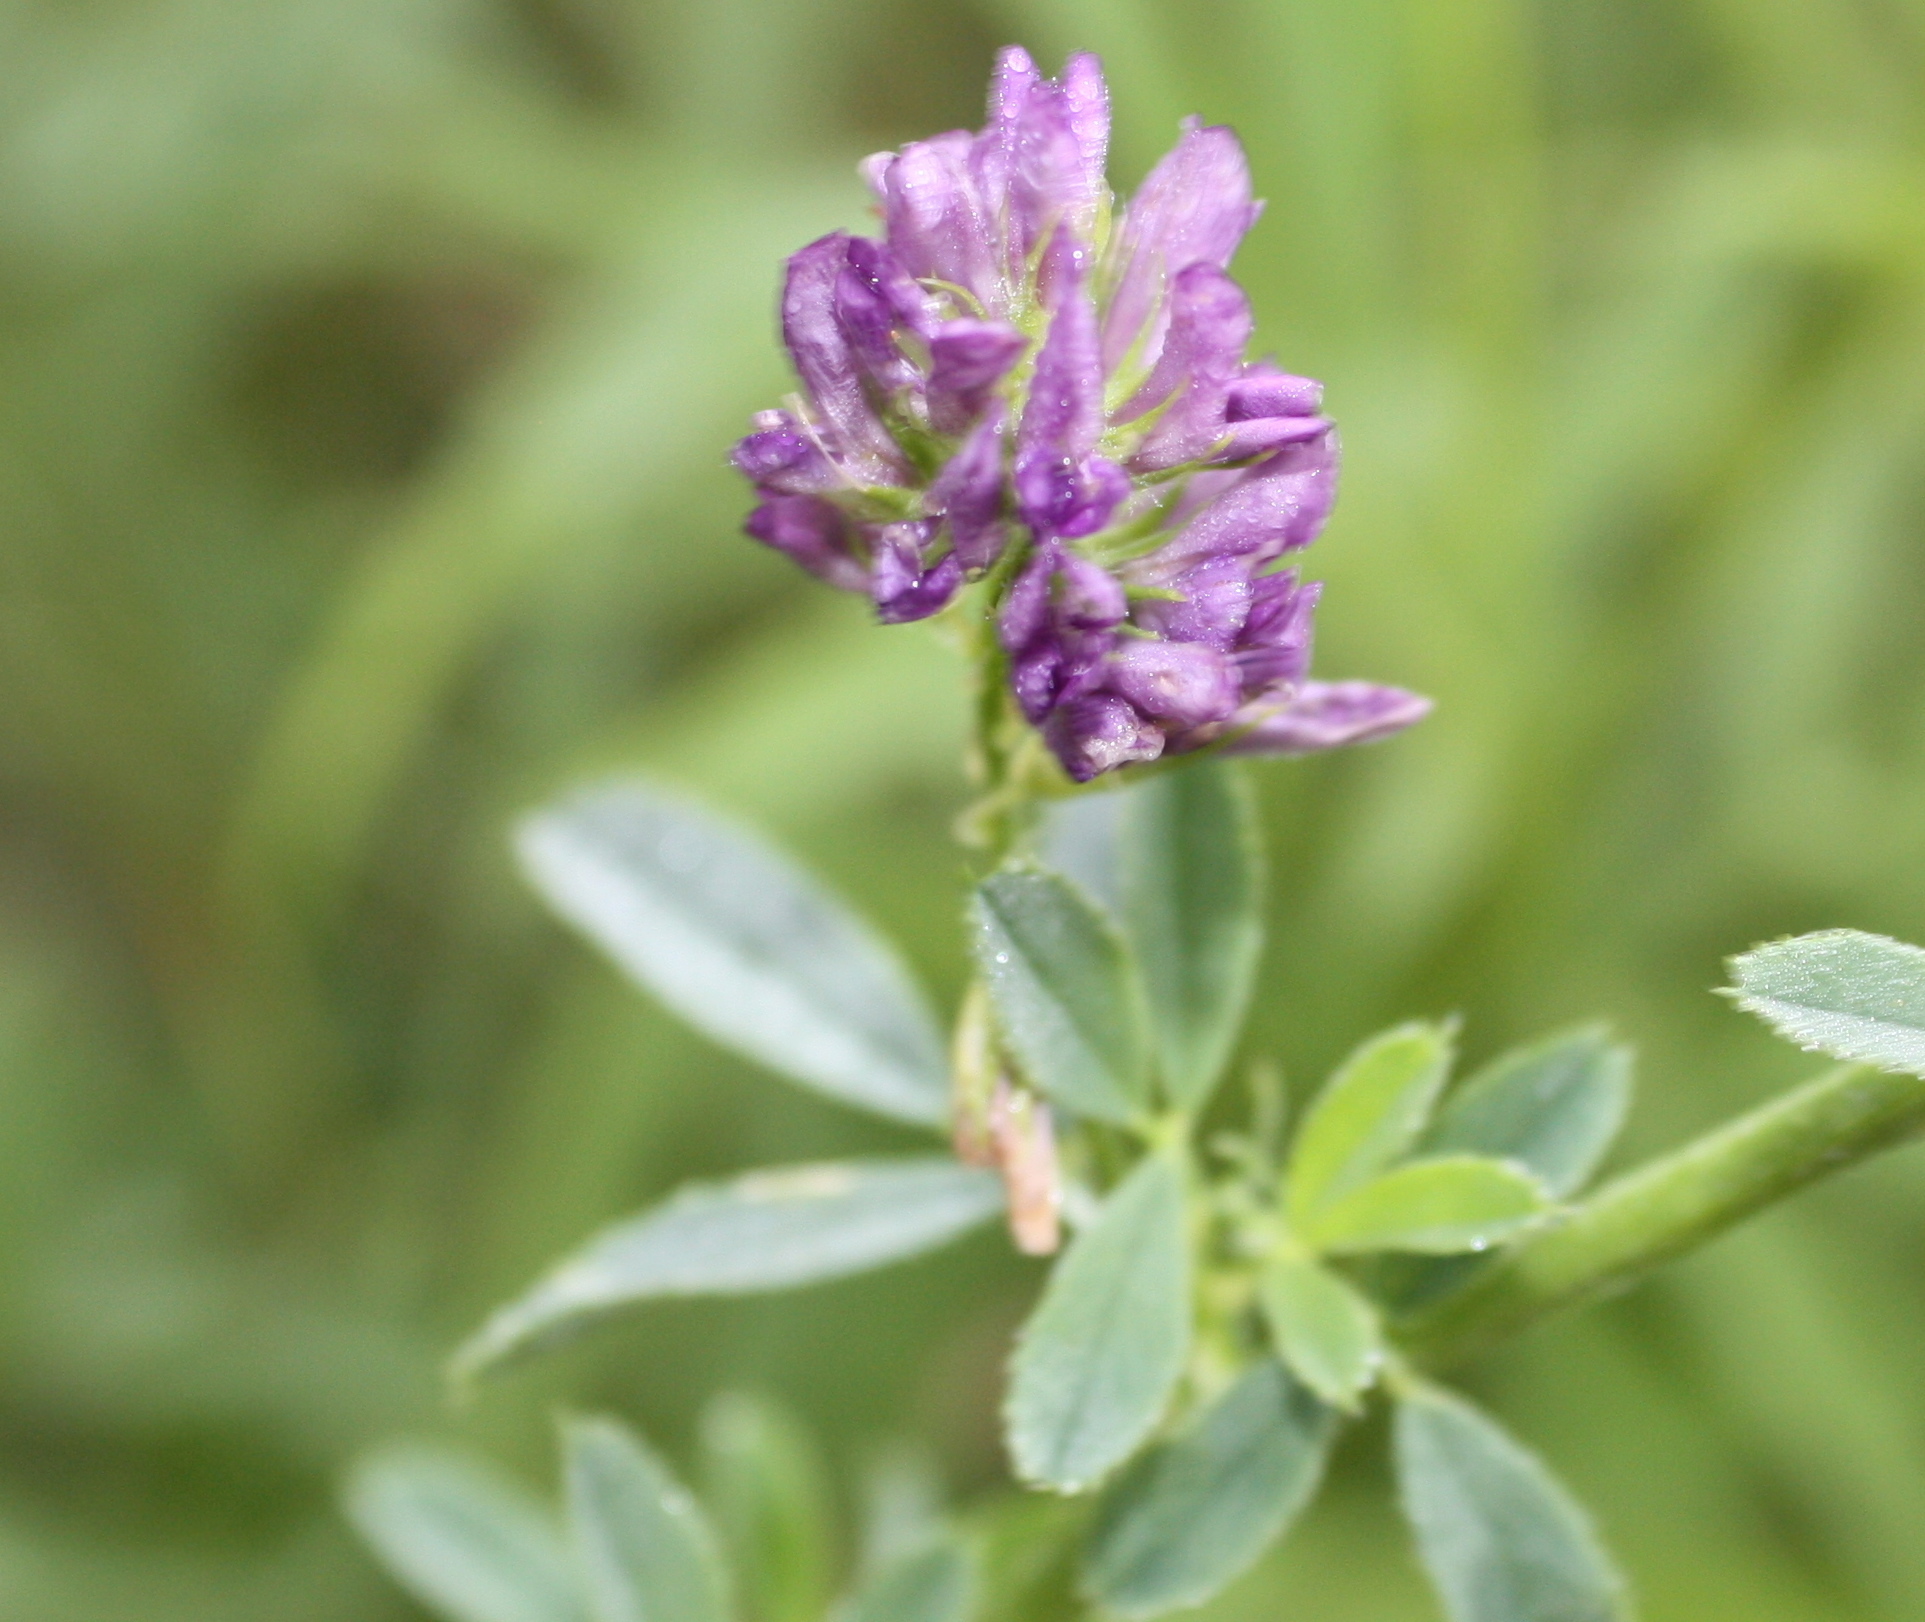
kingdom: Plantae
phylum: Tracheophyta
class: Magnoliopsida
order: Fabales
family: Fabaceae
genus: Medicago
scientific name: Medicago sativa
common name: Alfalfa
